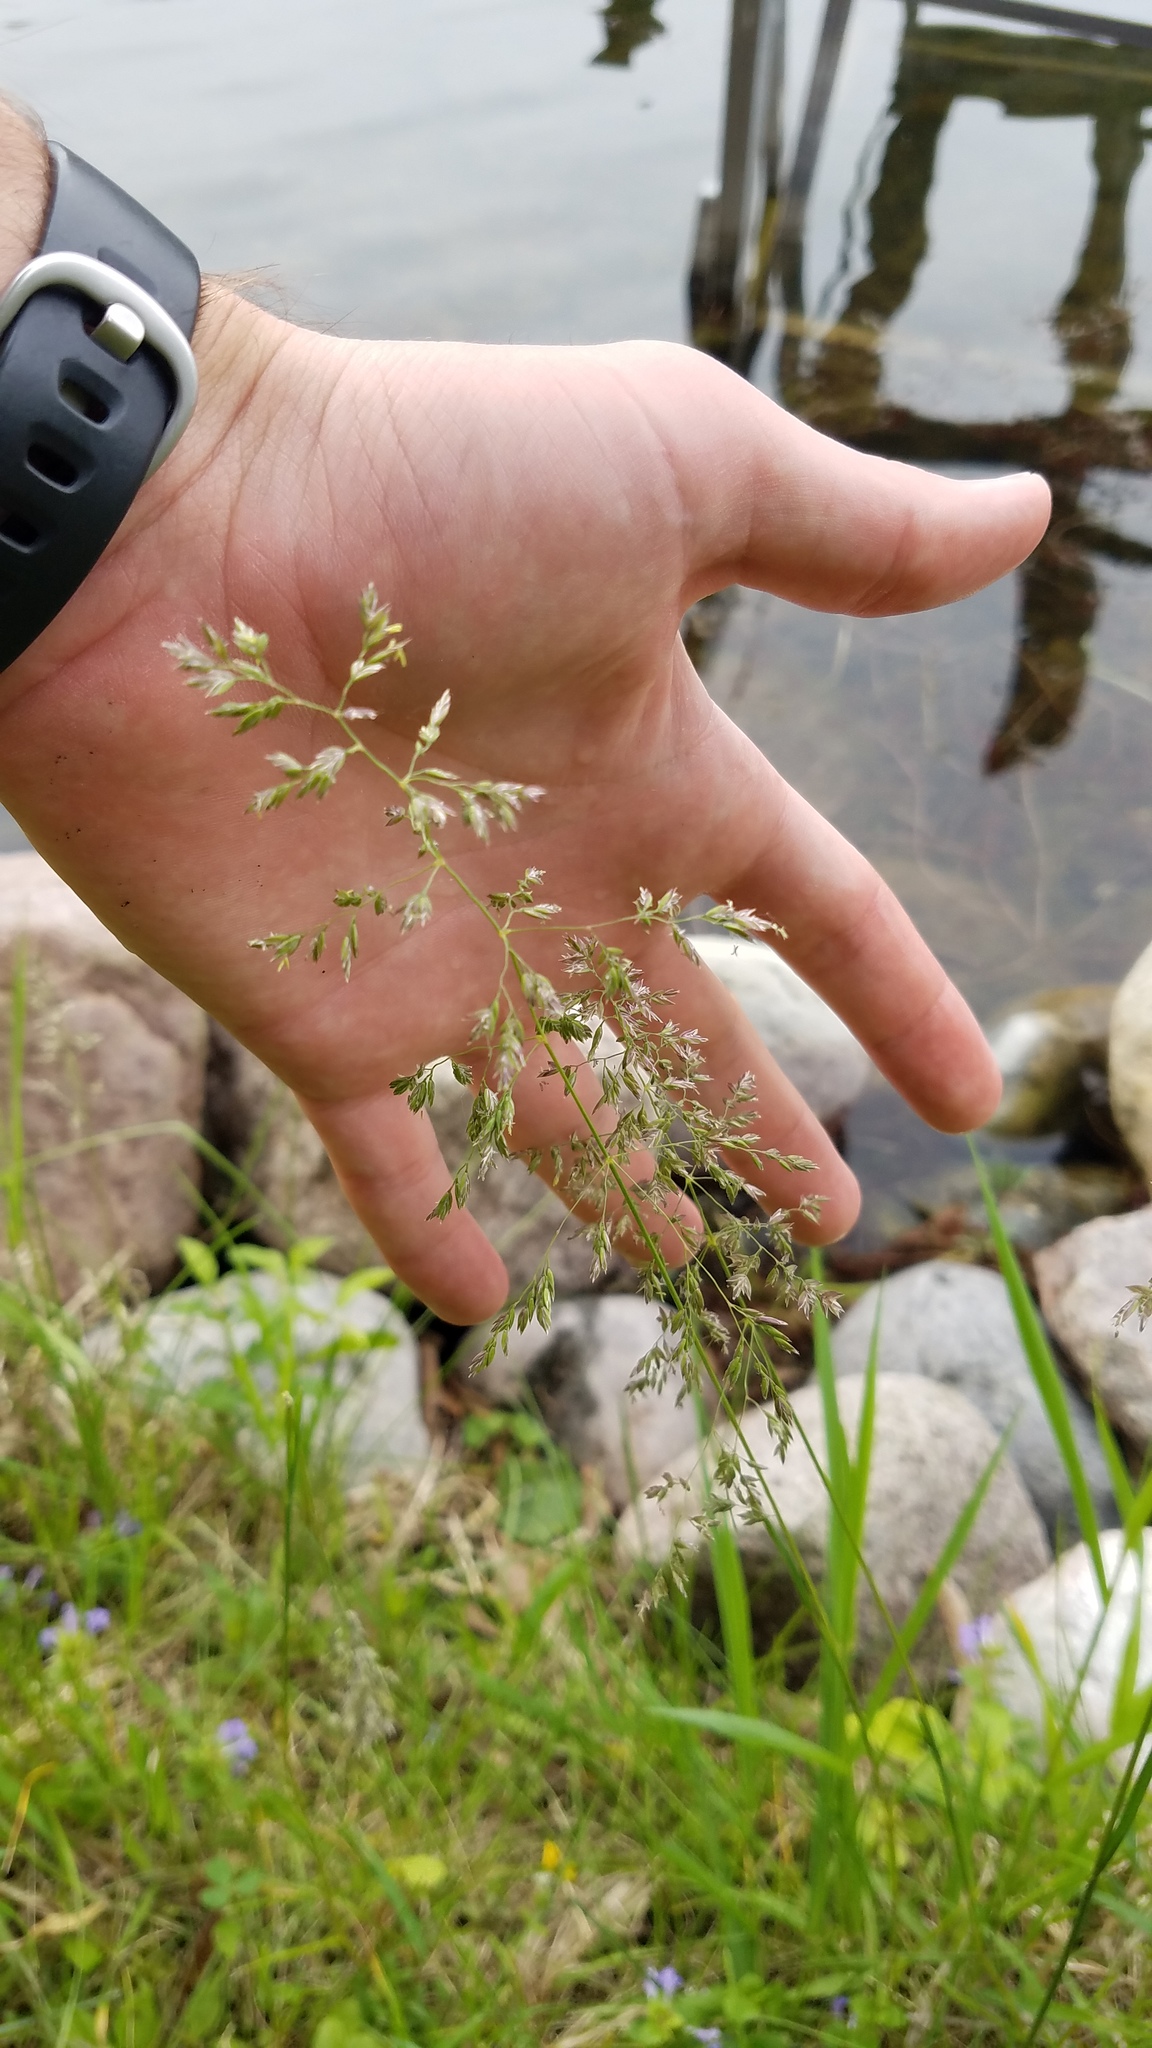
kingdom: Plantae
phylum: Tracheophyta
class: Liliopsida
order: Poales
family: Poaceae
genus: Poa
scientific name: Poa pratensis
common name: Kentucky bluegrass
